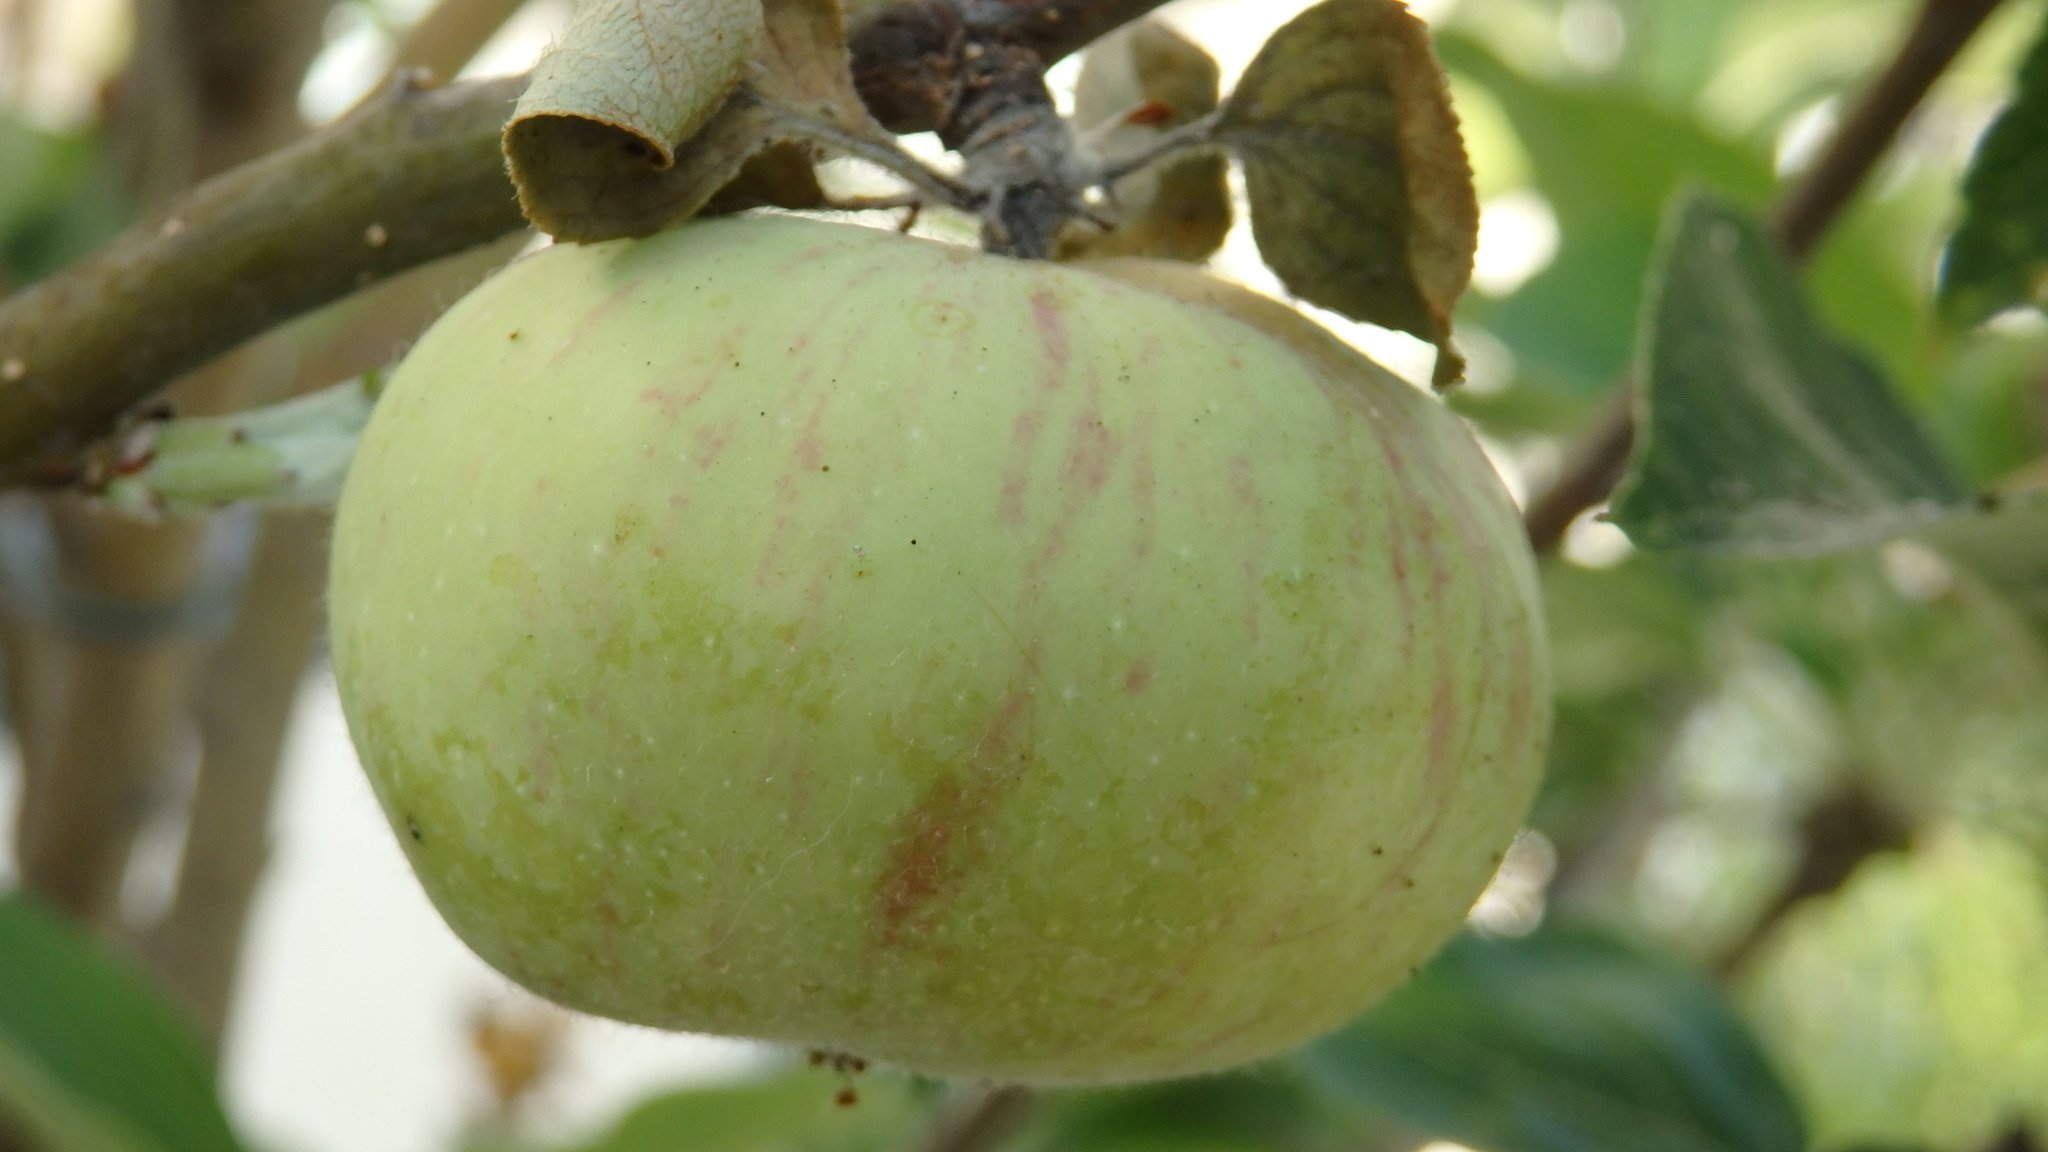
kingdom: Plantae
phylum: Tracheophyta
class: Magnoliopsida
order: Rosales
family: Rosaceae
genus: Malus
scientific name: Malus domestica
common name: Apple
